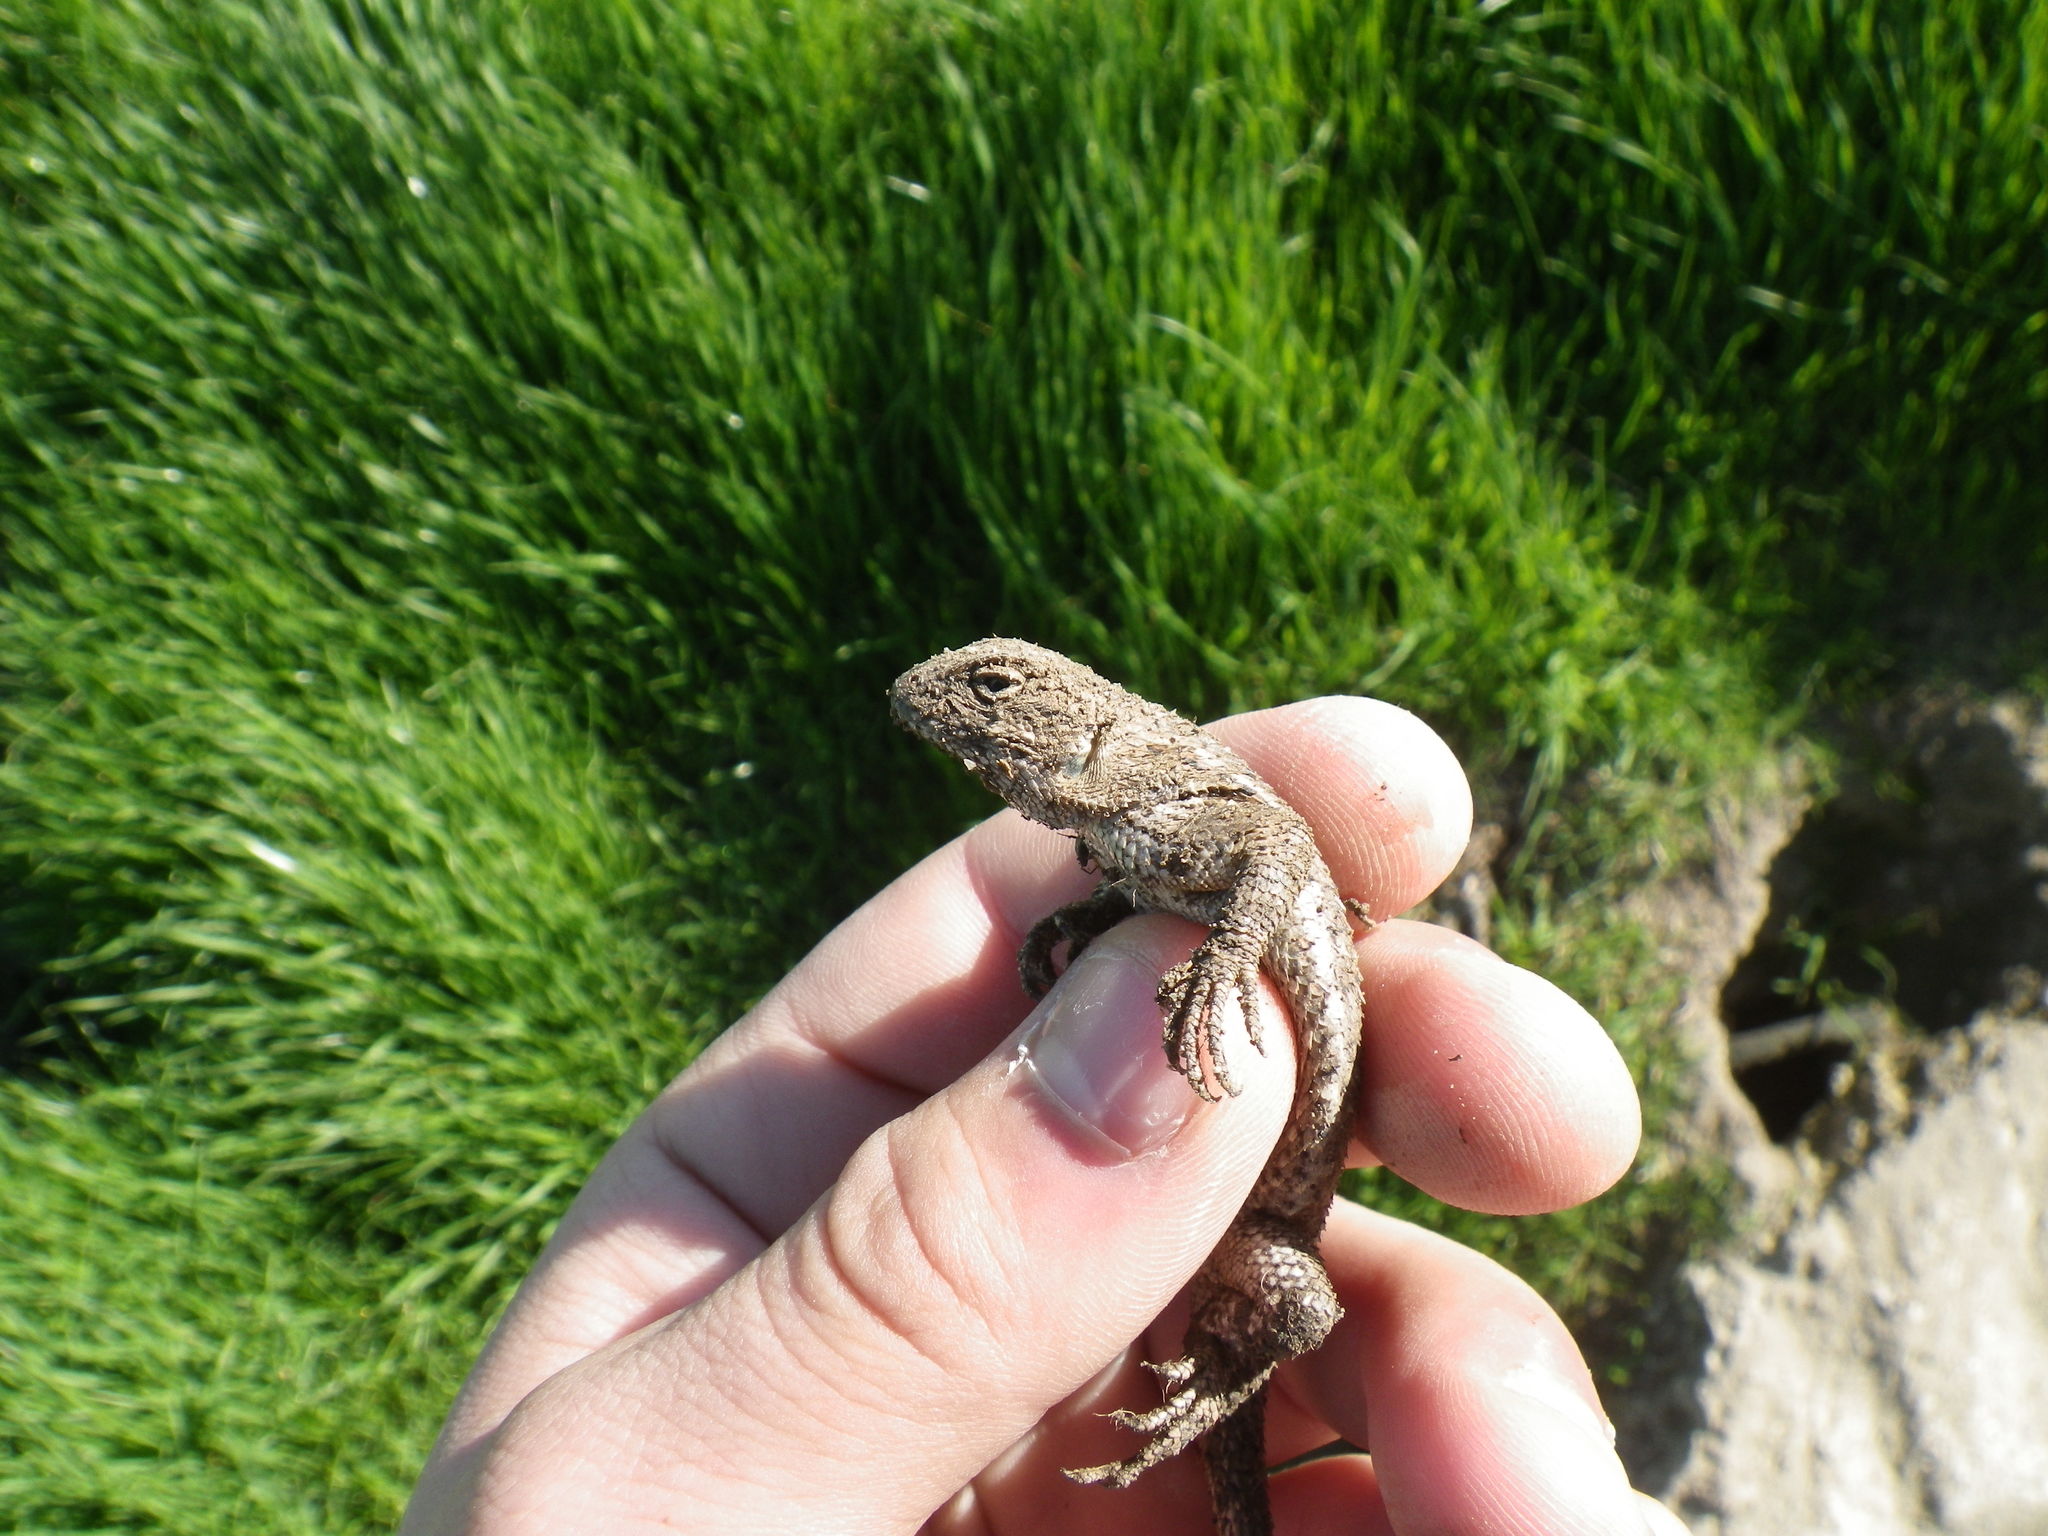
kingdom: Animalia
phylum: Chordata
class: Squamata
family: Phrynosomatidae
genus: Sceloporus
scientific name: Sceloporus occidentalis
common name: Western fence lizard
